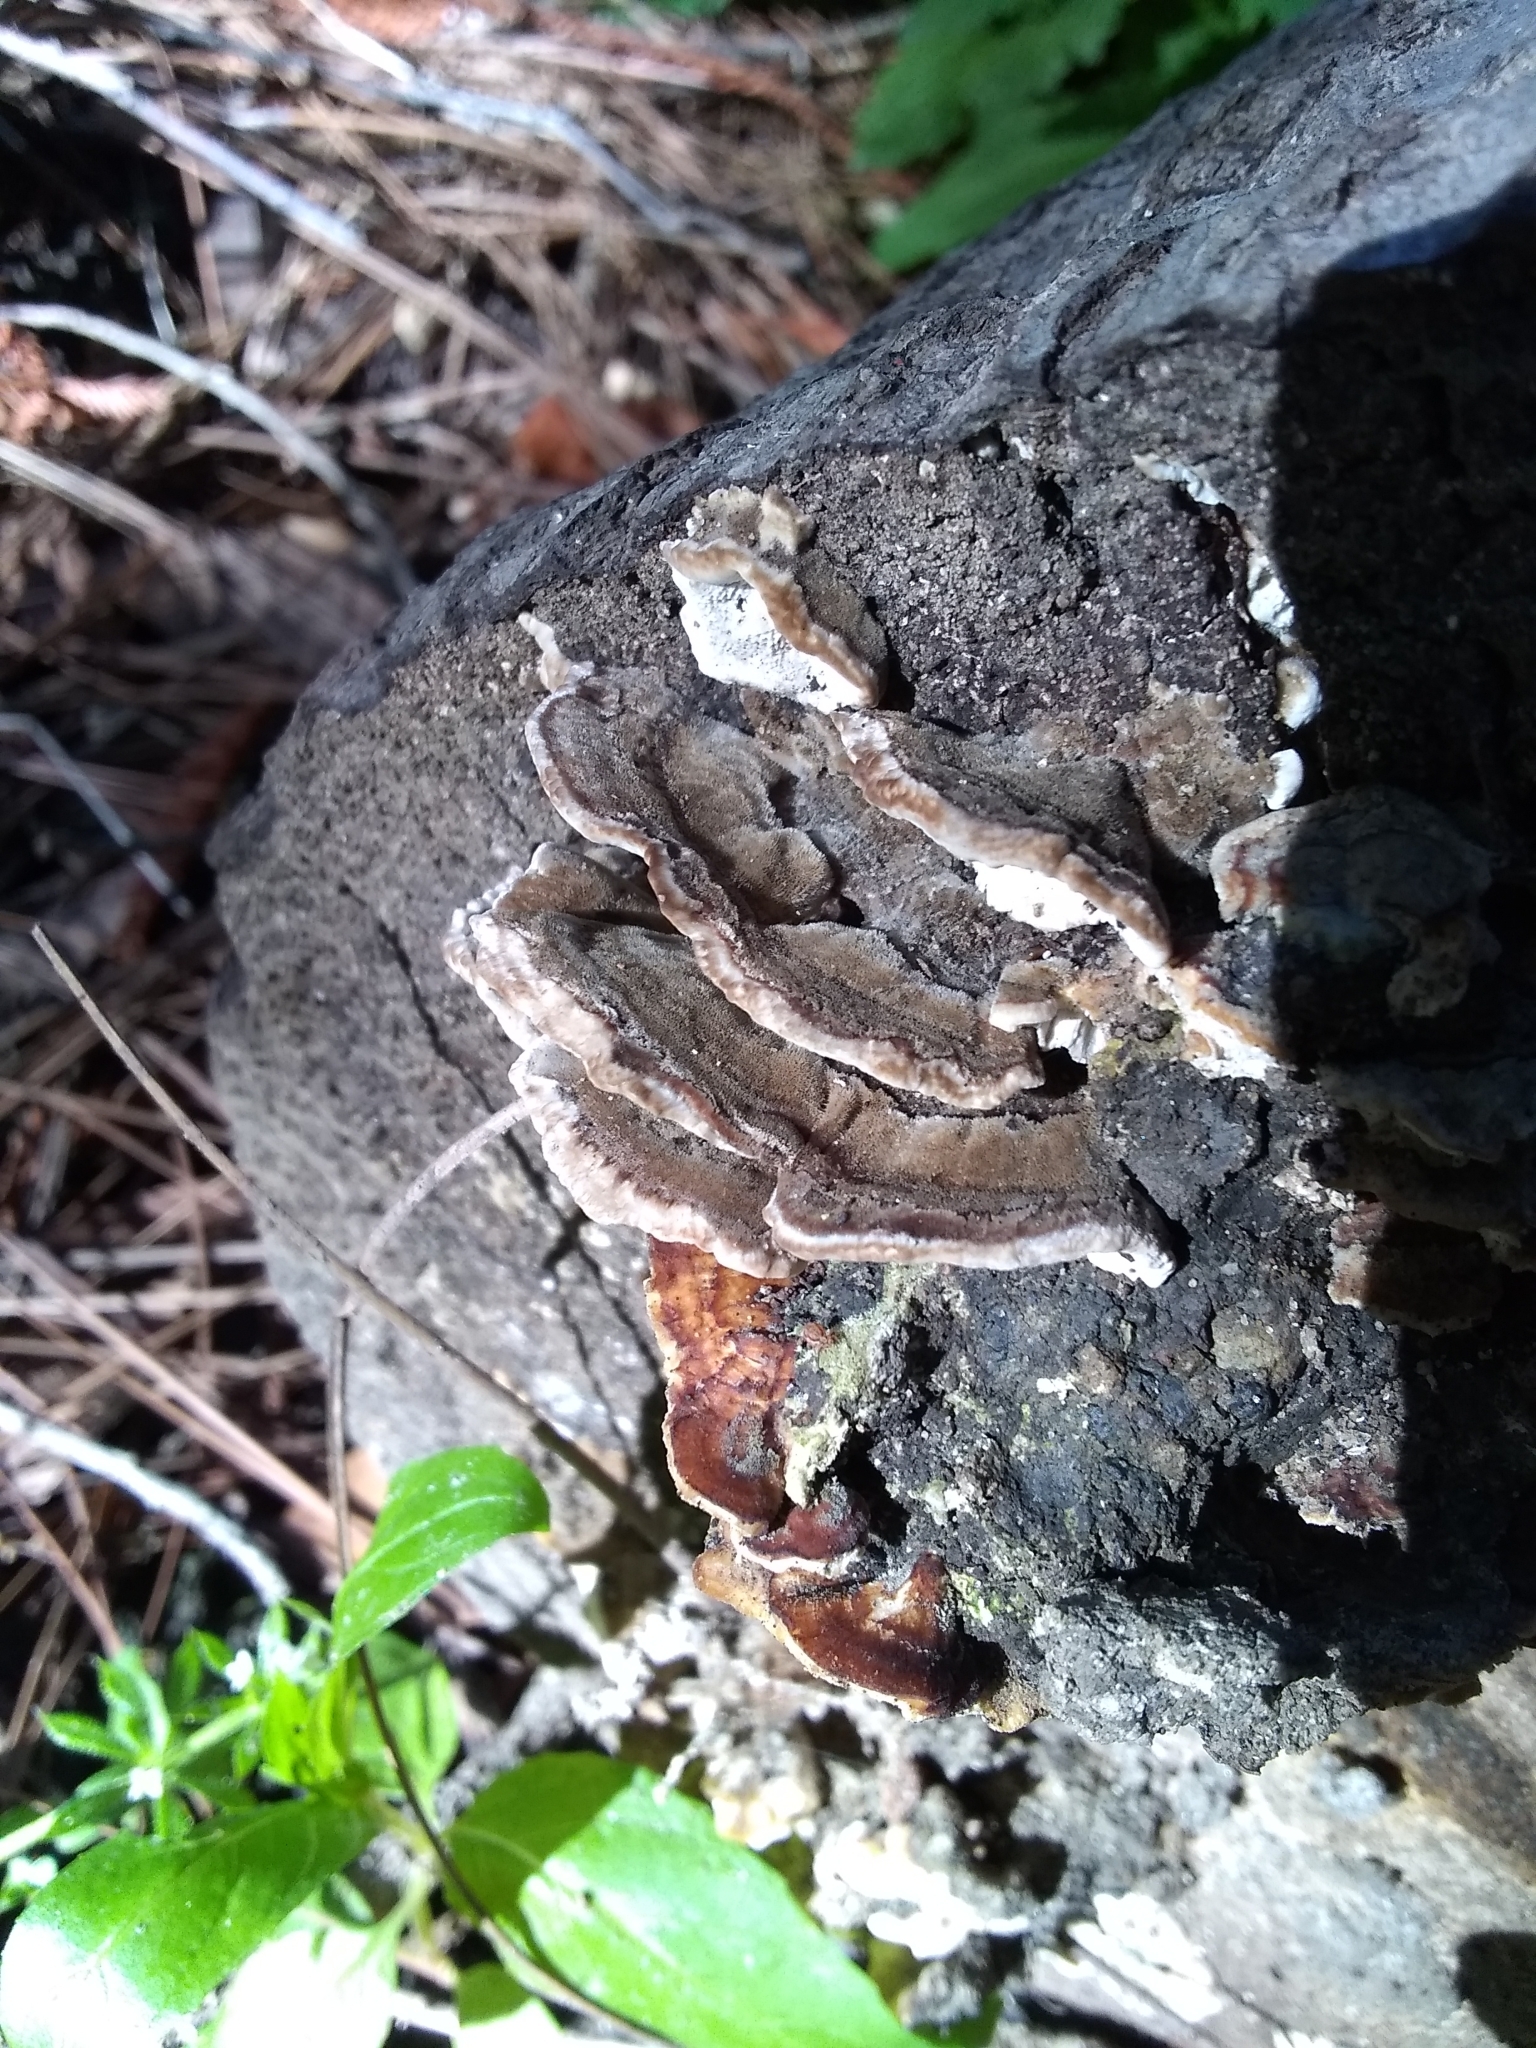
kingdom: Fungi
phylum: Basidiomycota
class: Agaricomycetes
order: Polyporales
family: Polyporaceae
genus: Trametes
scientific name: Trametes versicolor
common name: Turkeytail
